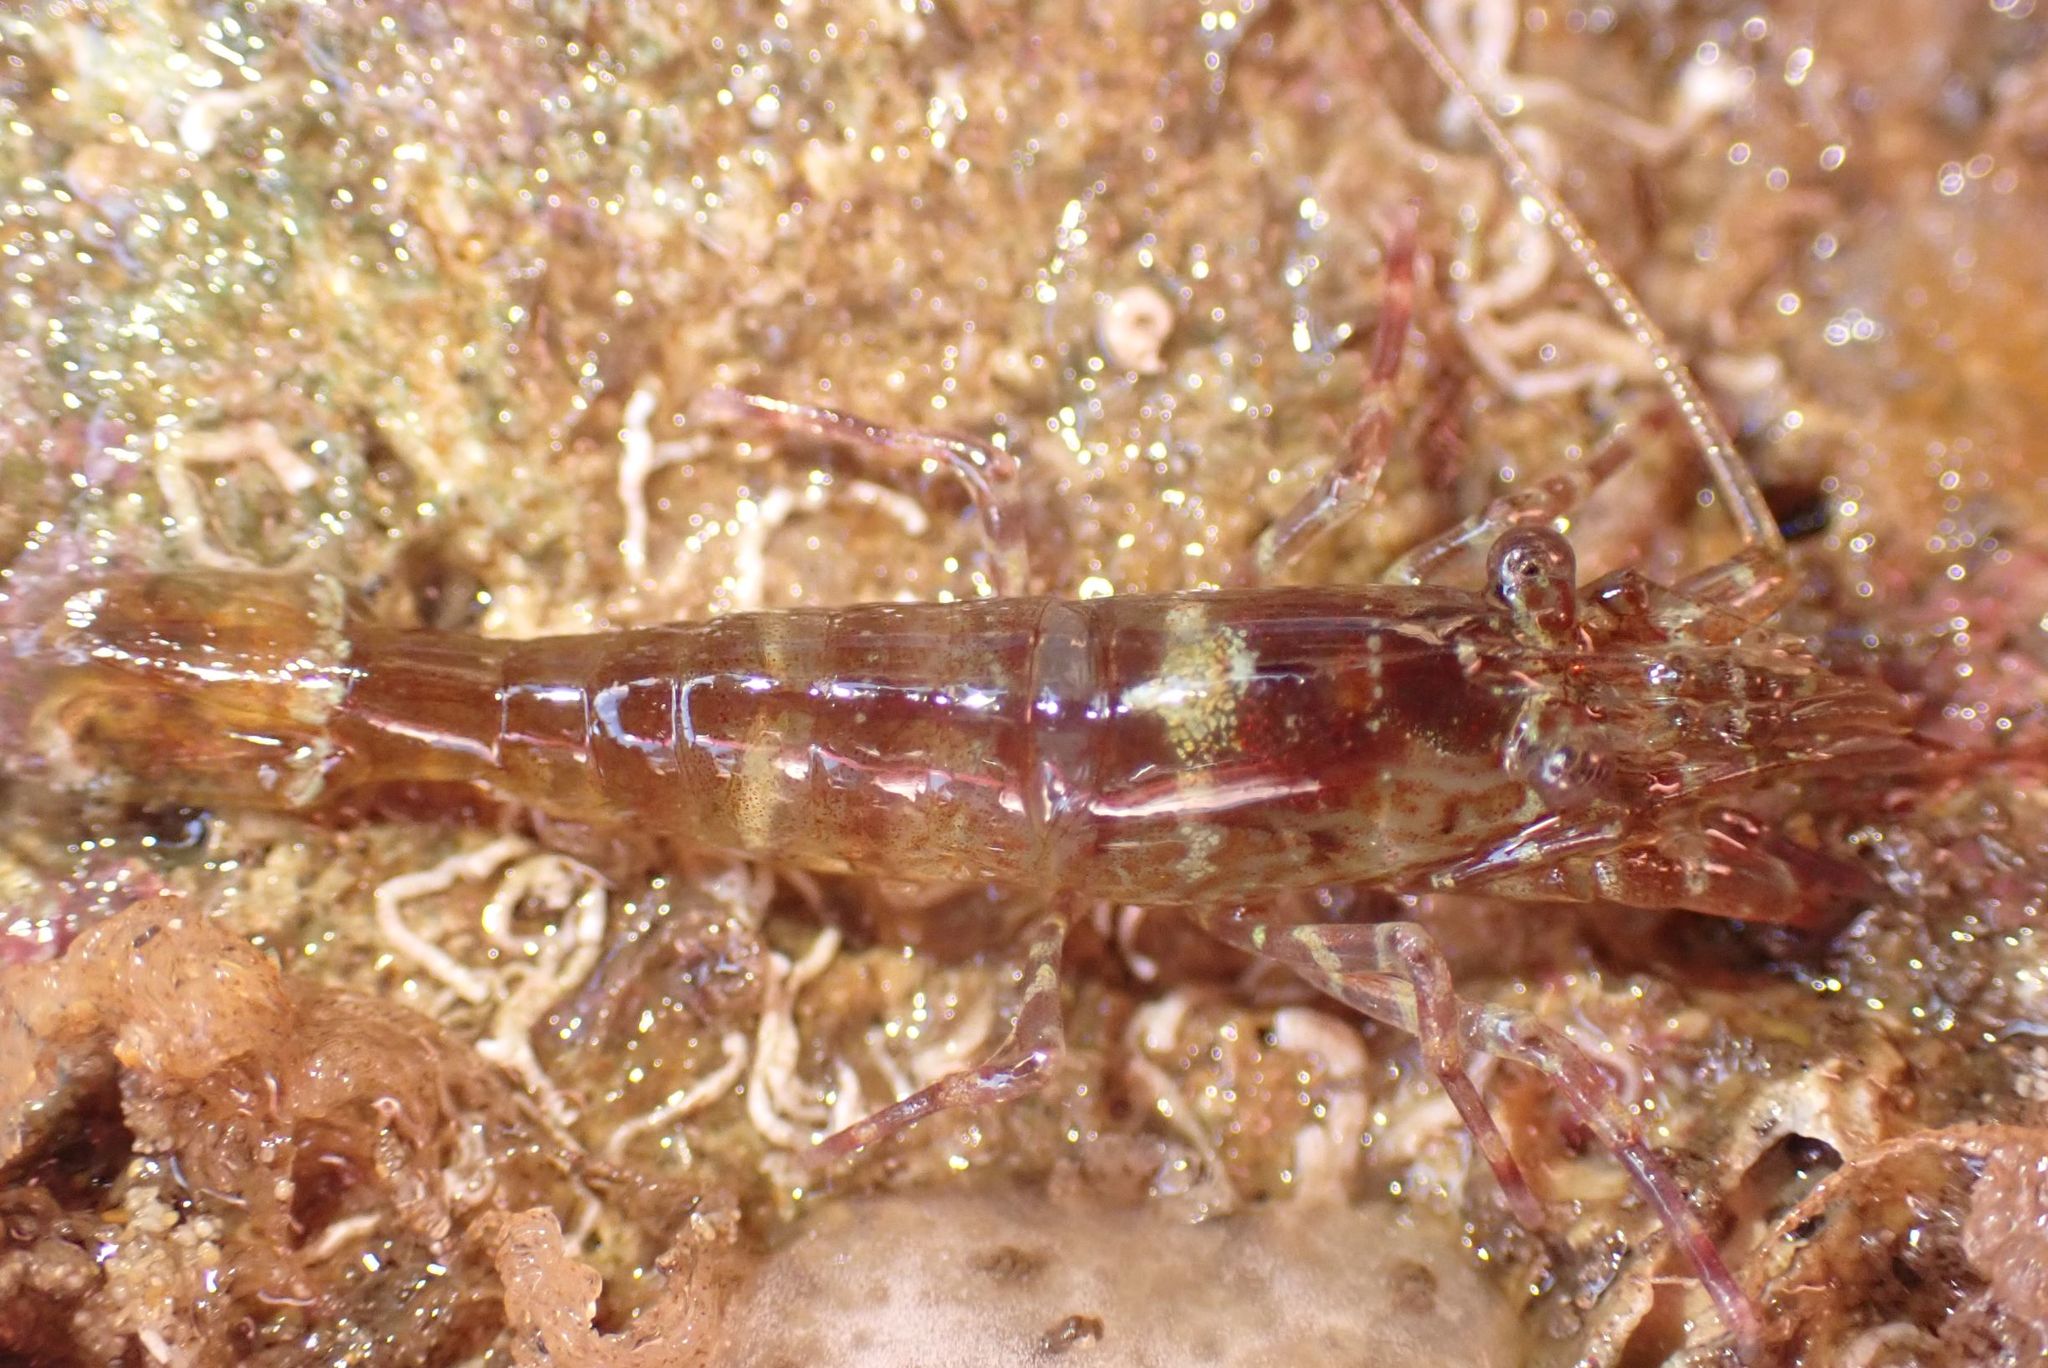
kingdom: Animalia
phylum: Arthropoda
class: Malacostraca
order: Decapoda
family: Hippolytidae
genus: Alope
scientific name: Alope orientalis
